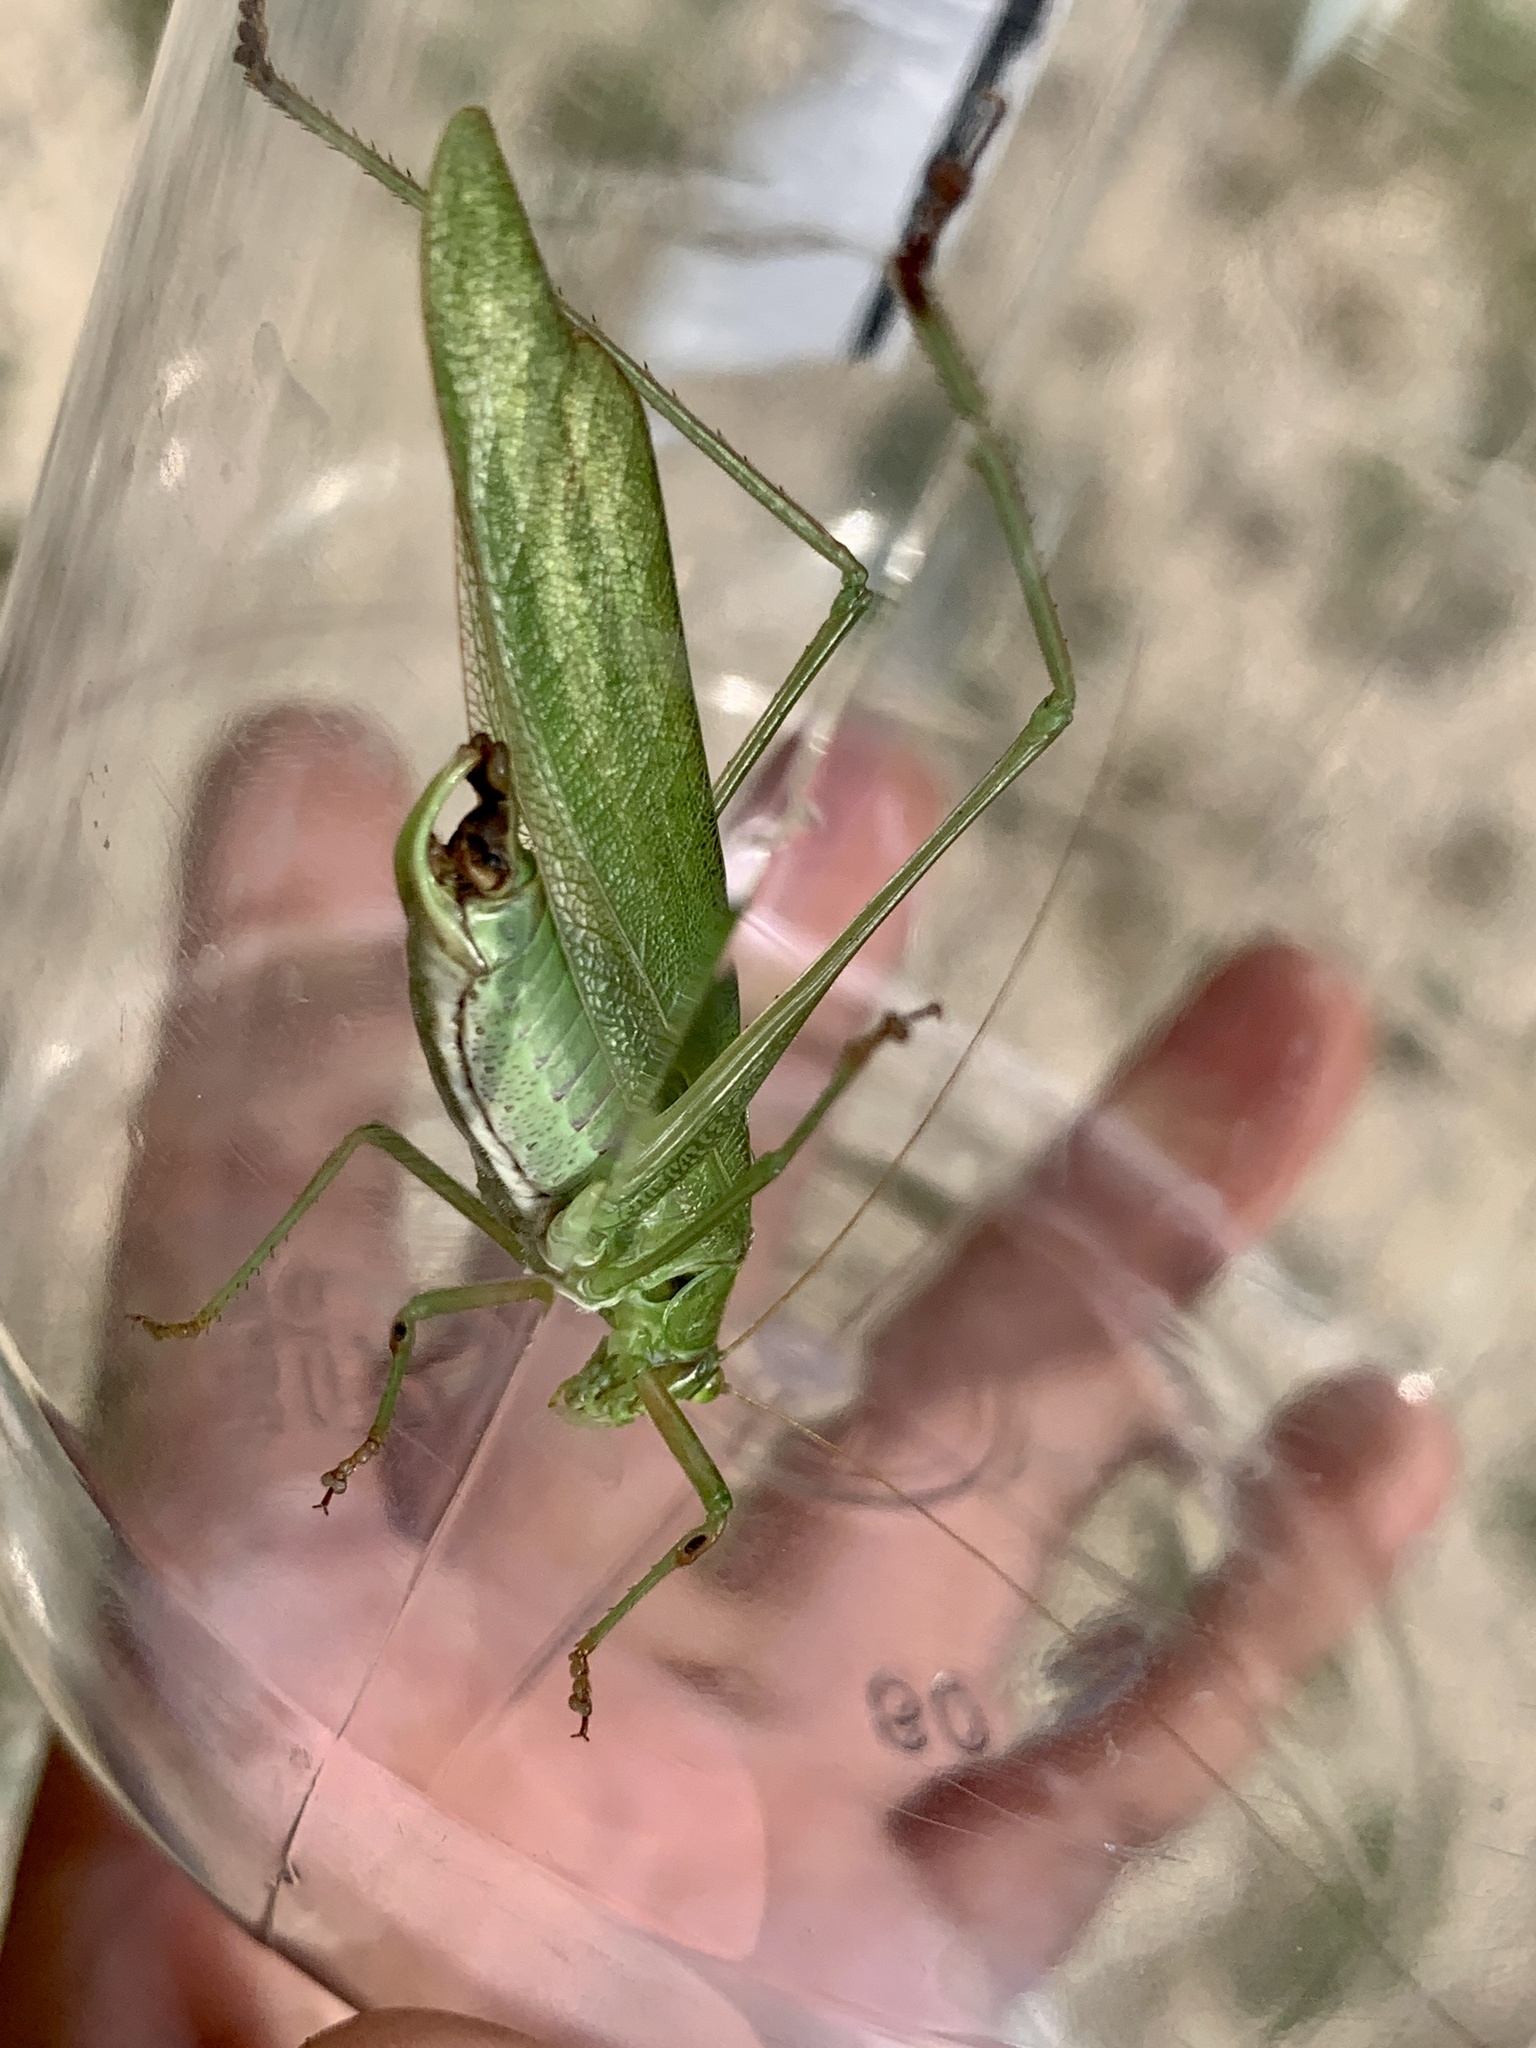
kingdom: Animalia
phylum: Arthropoda
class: Insecta
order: Orthoptera
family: Tettigoniidae
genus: Scudderia
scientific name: Scudderia furcata
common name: Fork-tailed bush katydid
